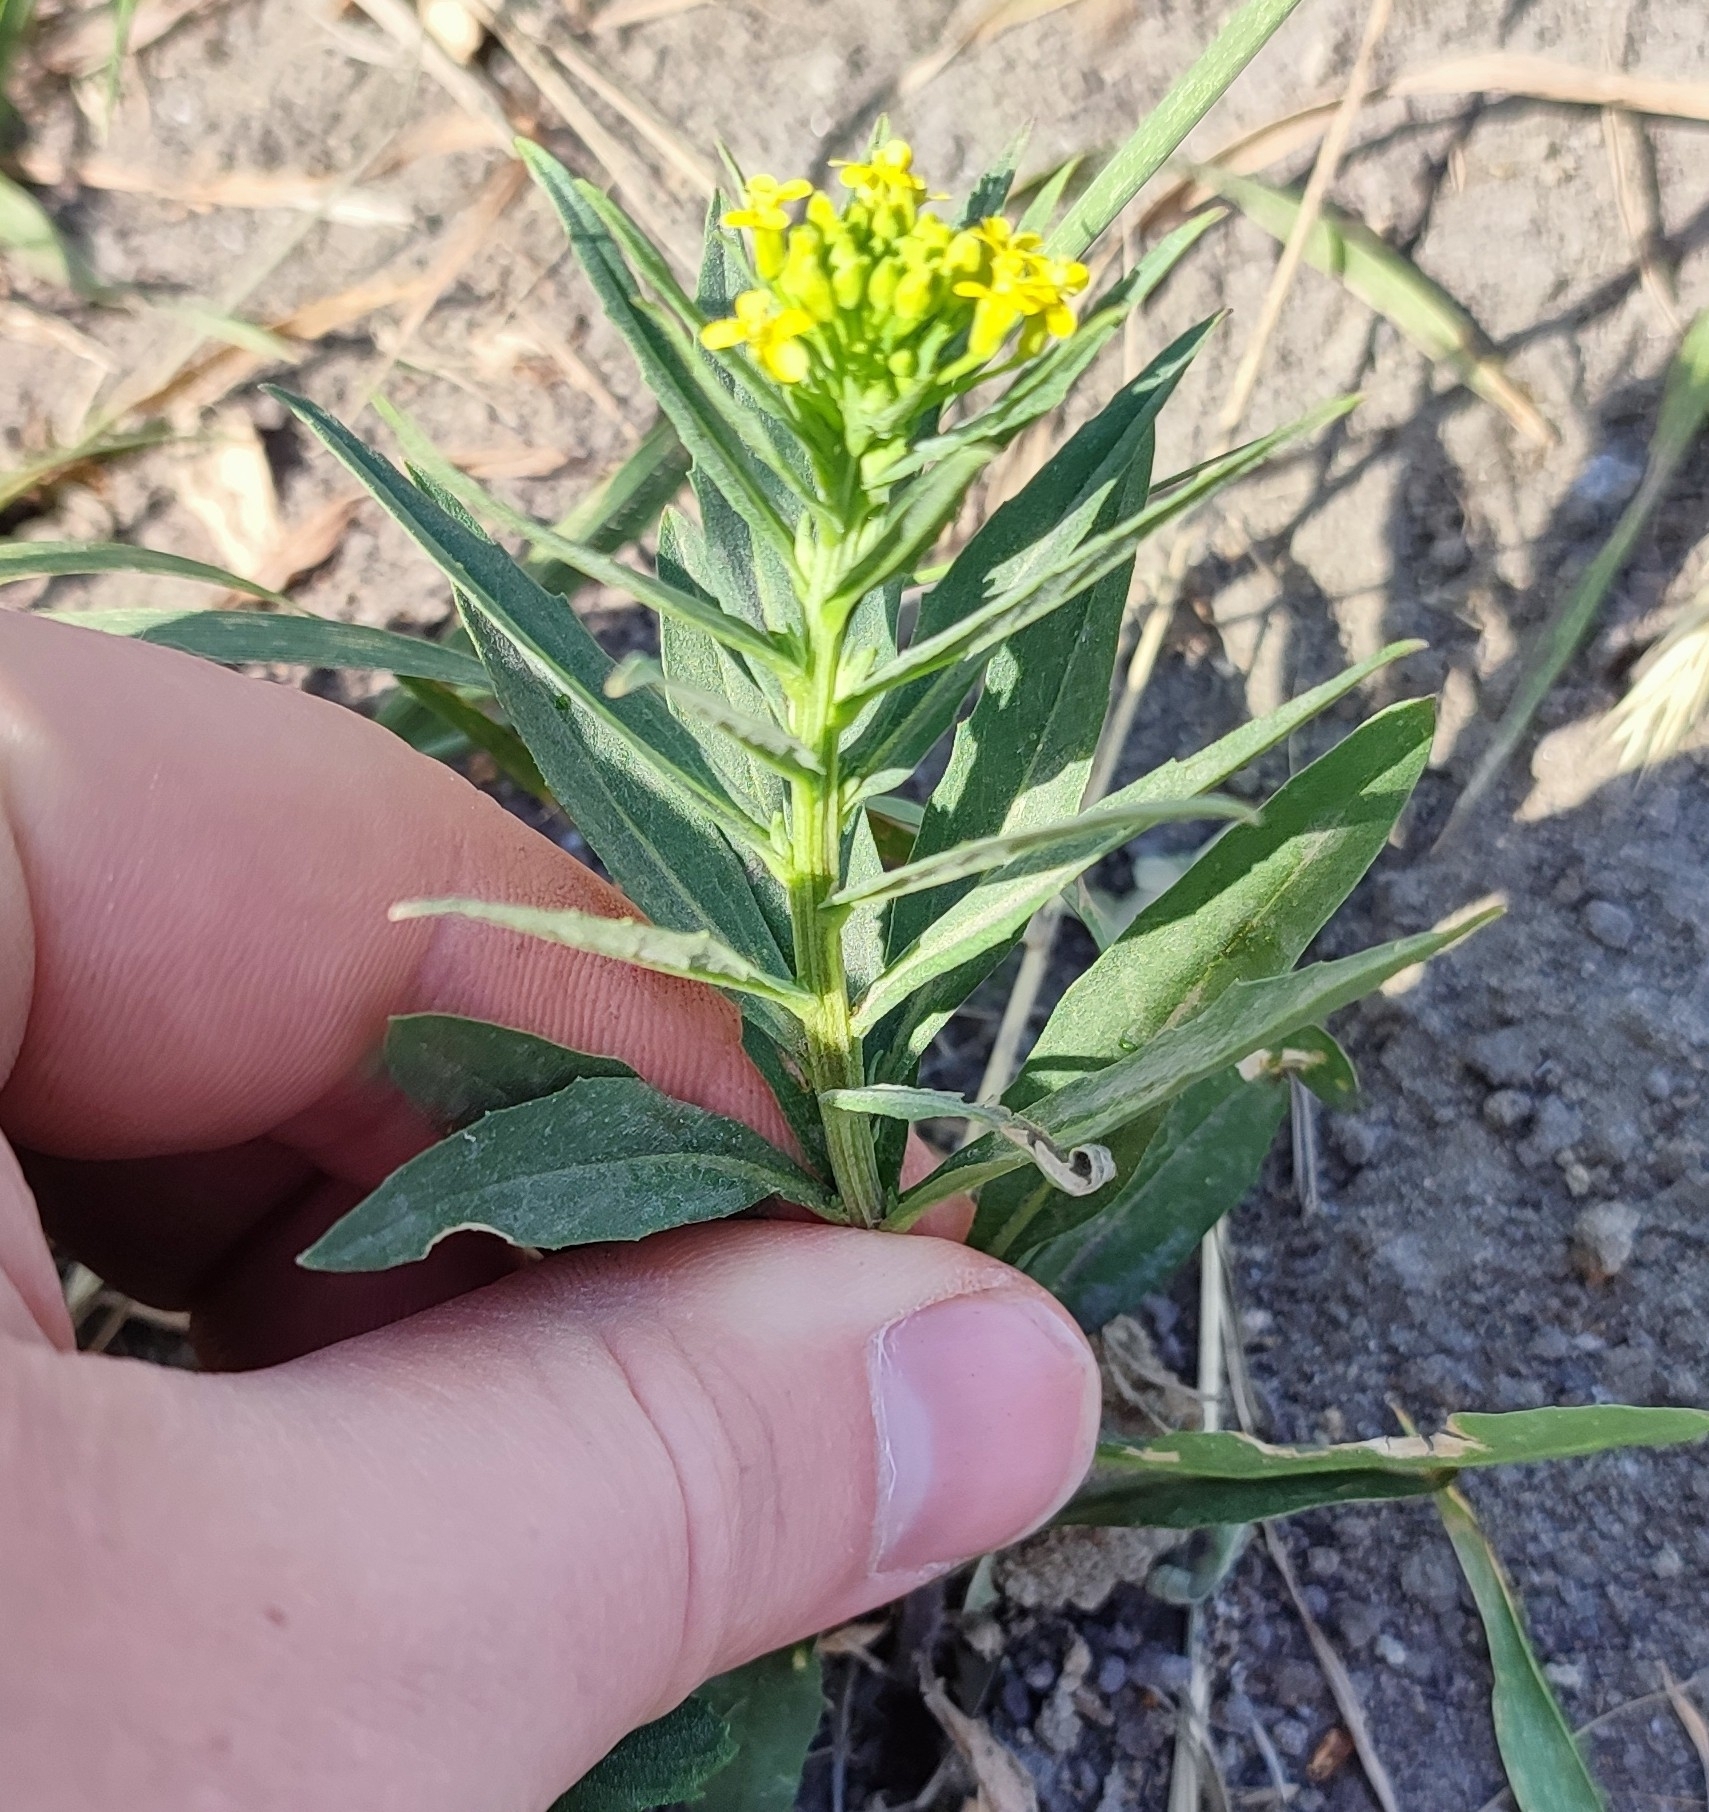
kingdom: Plantae
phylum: Tracheophyta
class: Magnoliopsida
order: Brassicales
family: Brassicaceae
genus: Erysimum
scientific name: Erysimum cheiranthoides
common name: Treacle mustard
